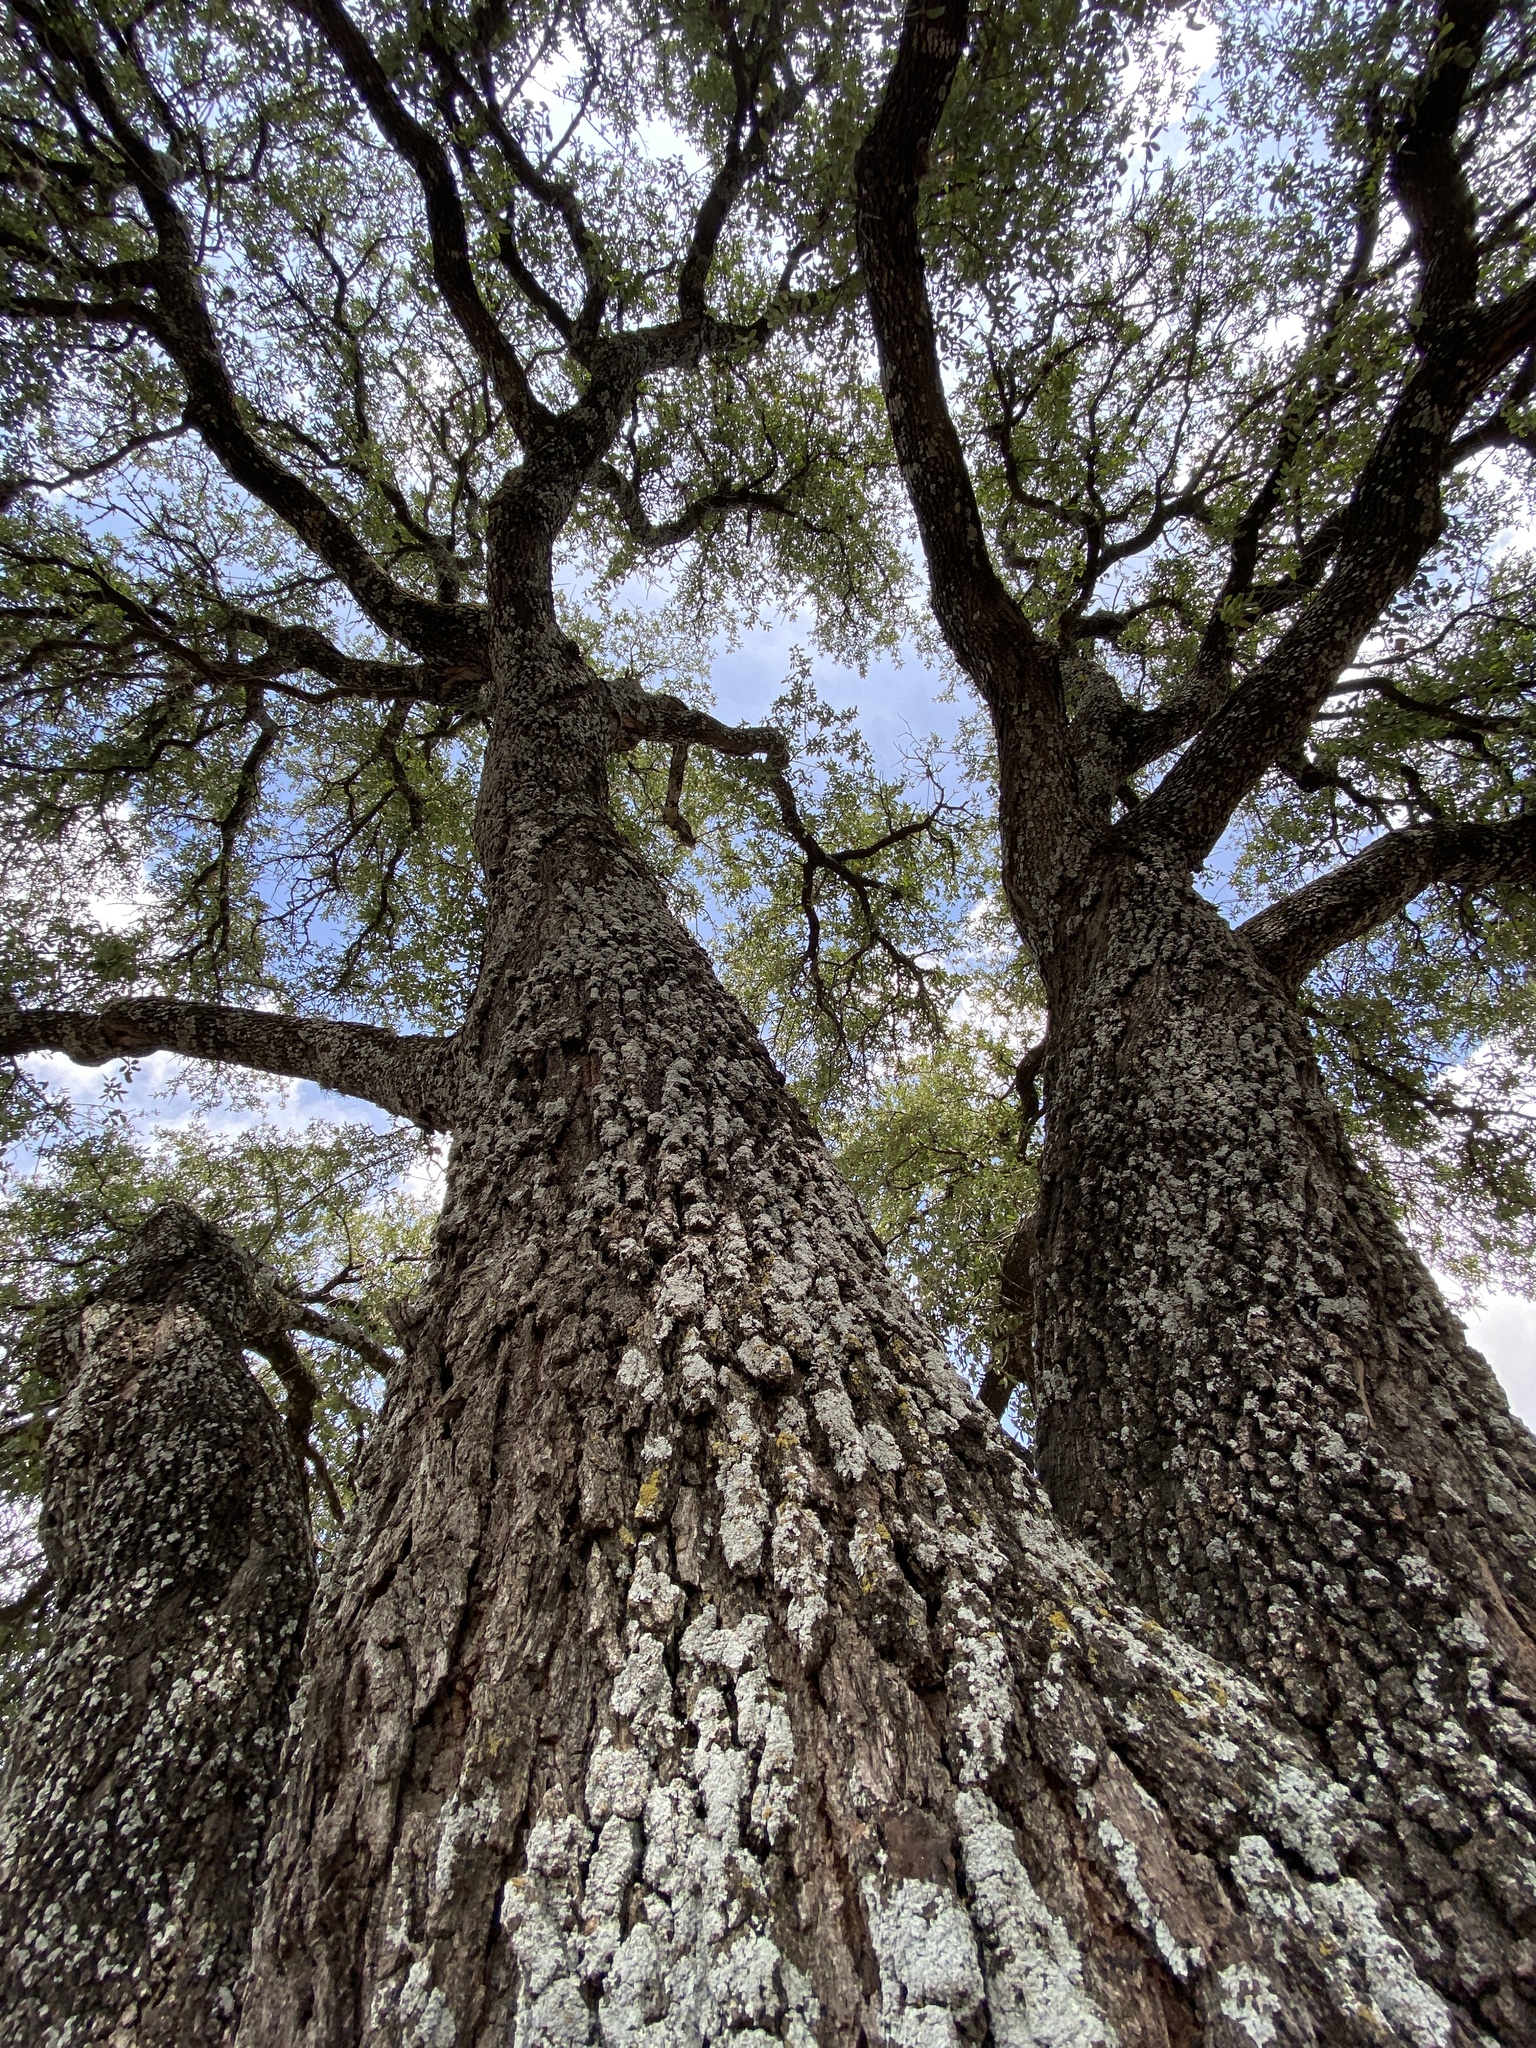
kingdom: Plantae
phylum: Tracheophyta
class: Magnoliopsida
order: Fagales
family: Fagaceae
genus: Quercus
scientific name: Quercus fusiformis
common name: Texas live oak
